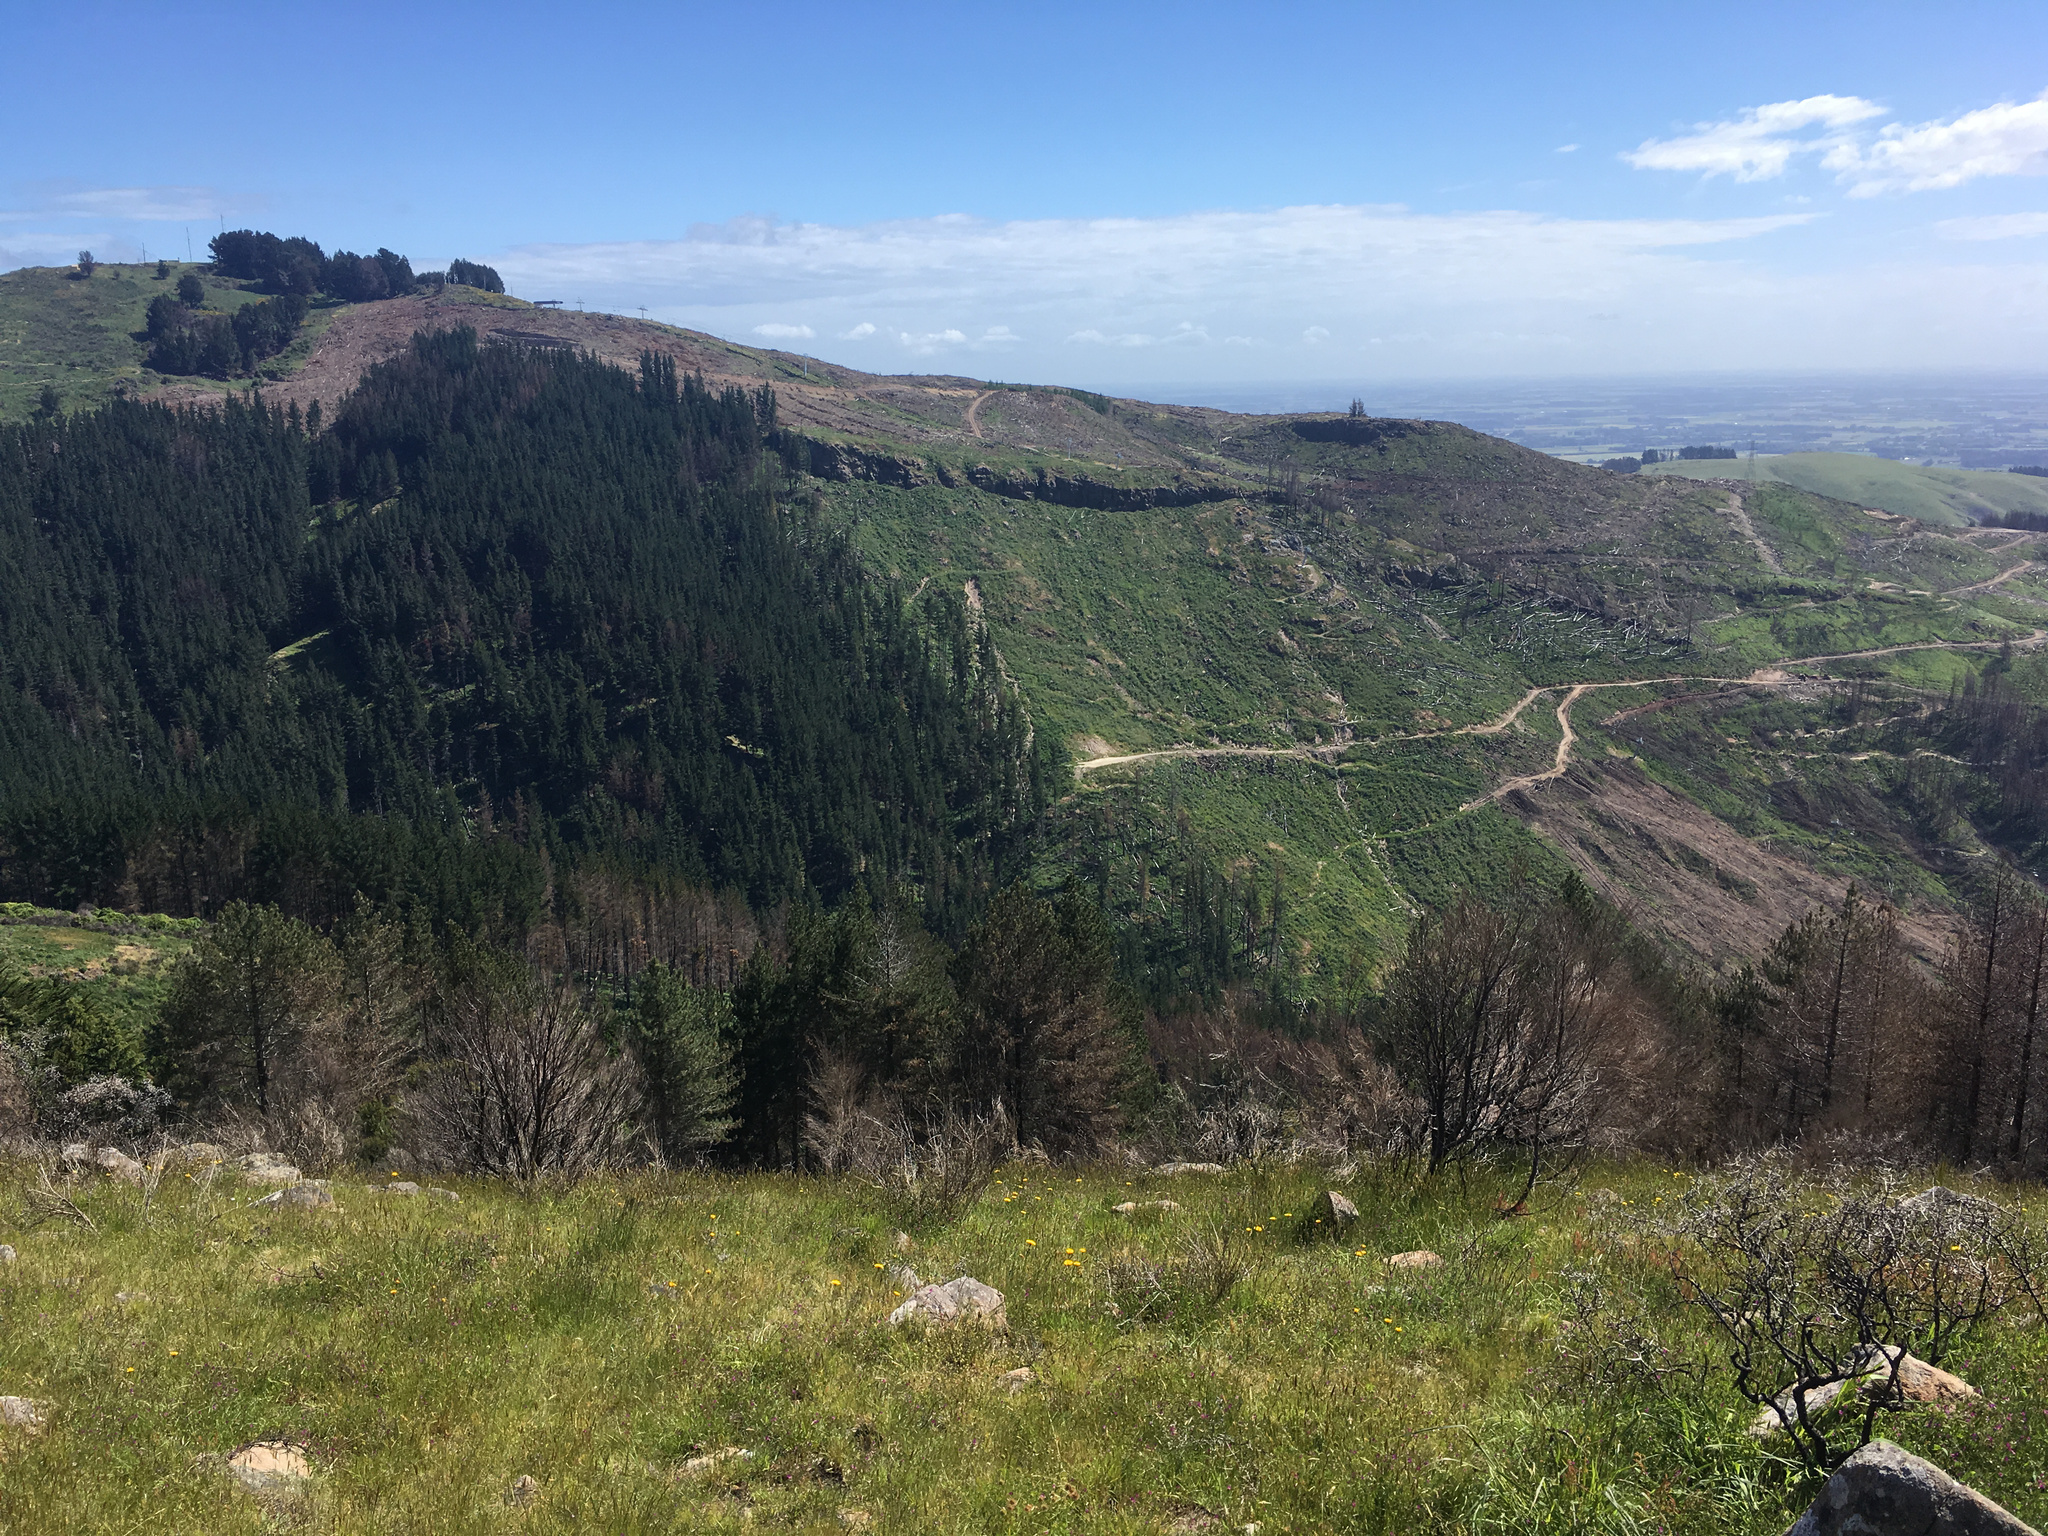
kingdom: Plantae
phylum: Tracheophyta
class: Magnoliopsida
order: Rosales
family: Rhamnaceae
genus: Discaria
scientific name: Discaria toumatou
